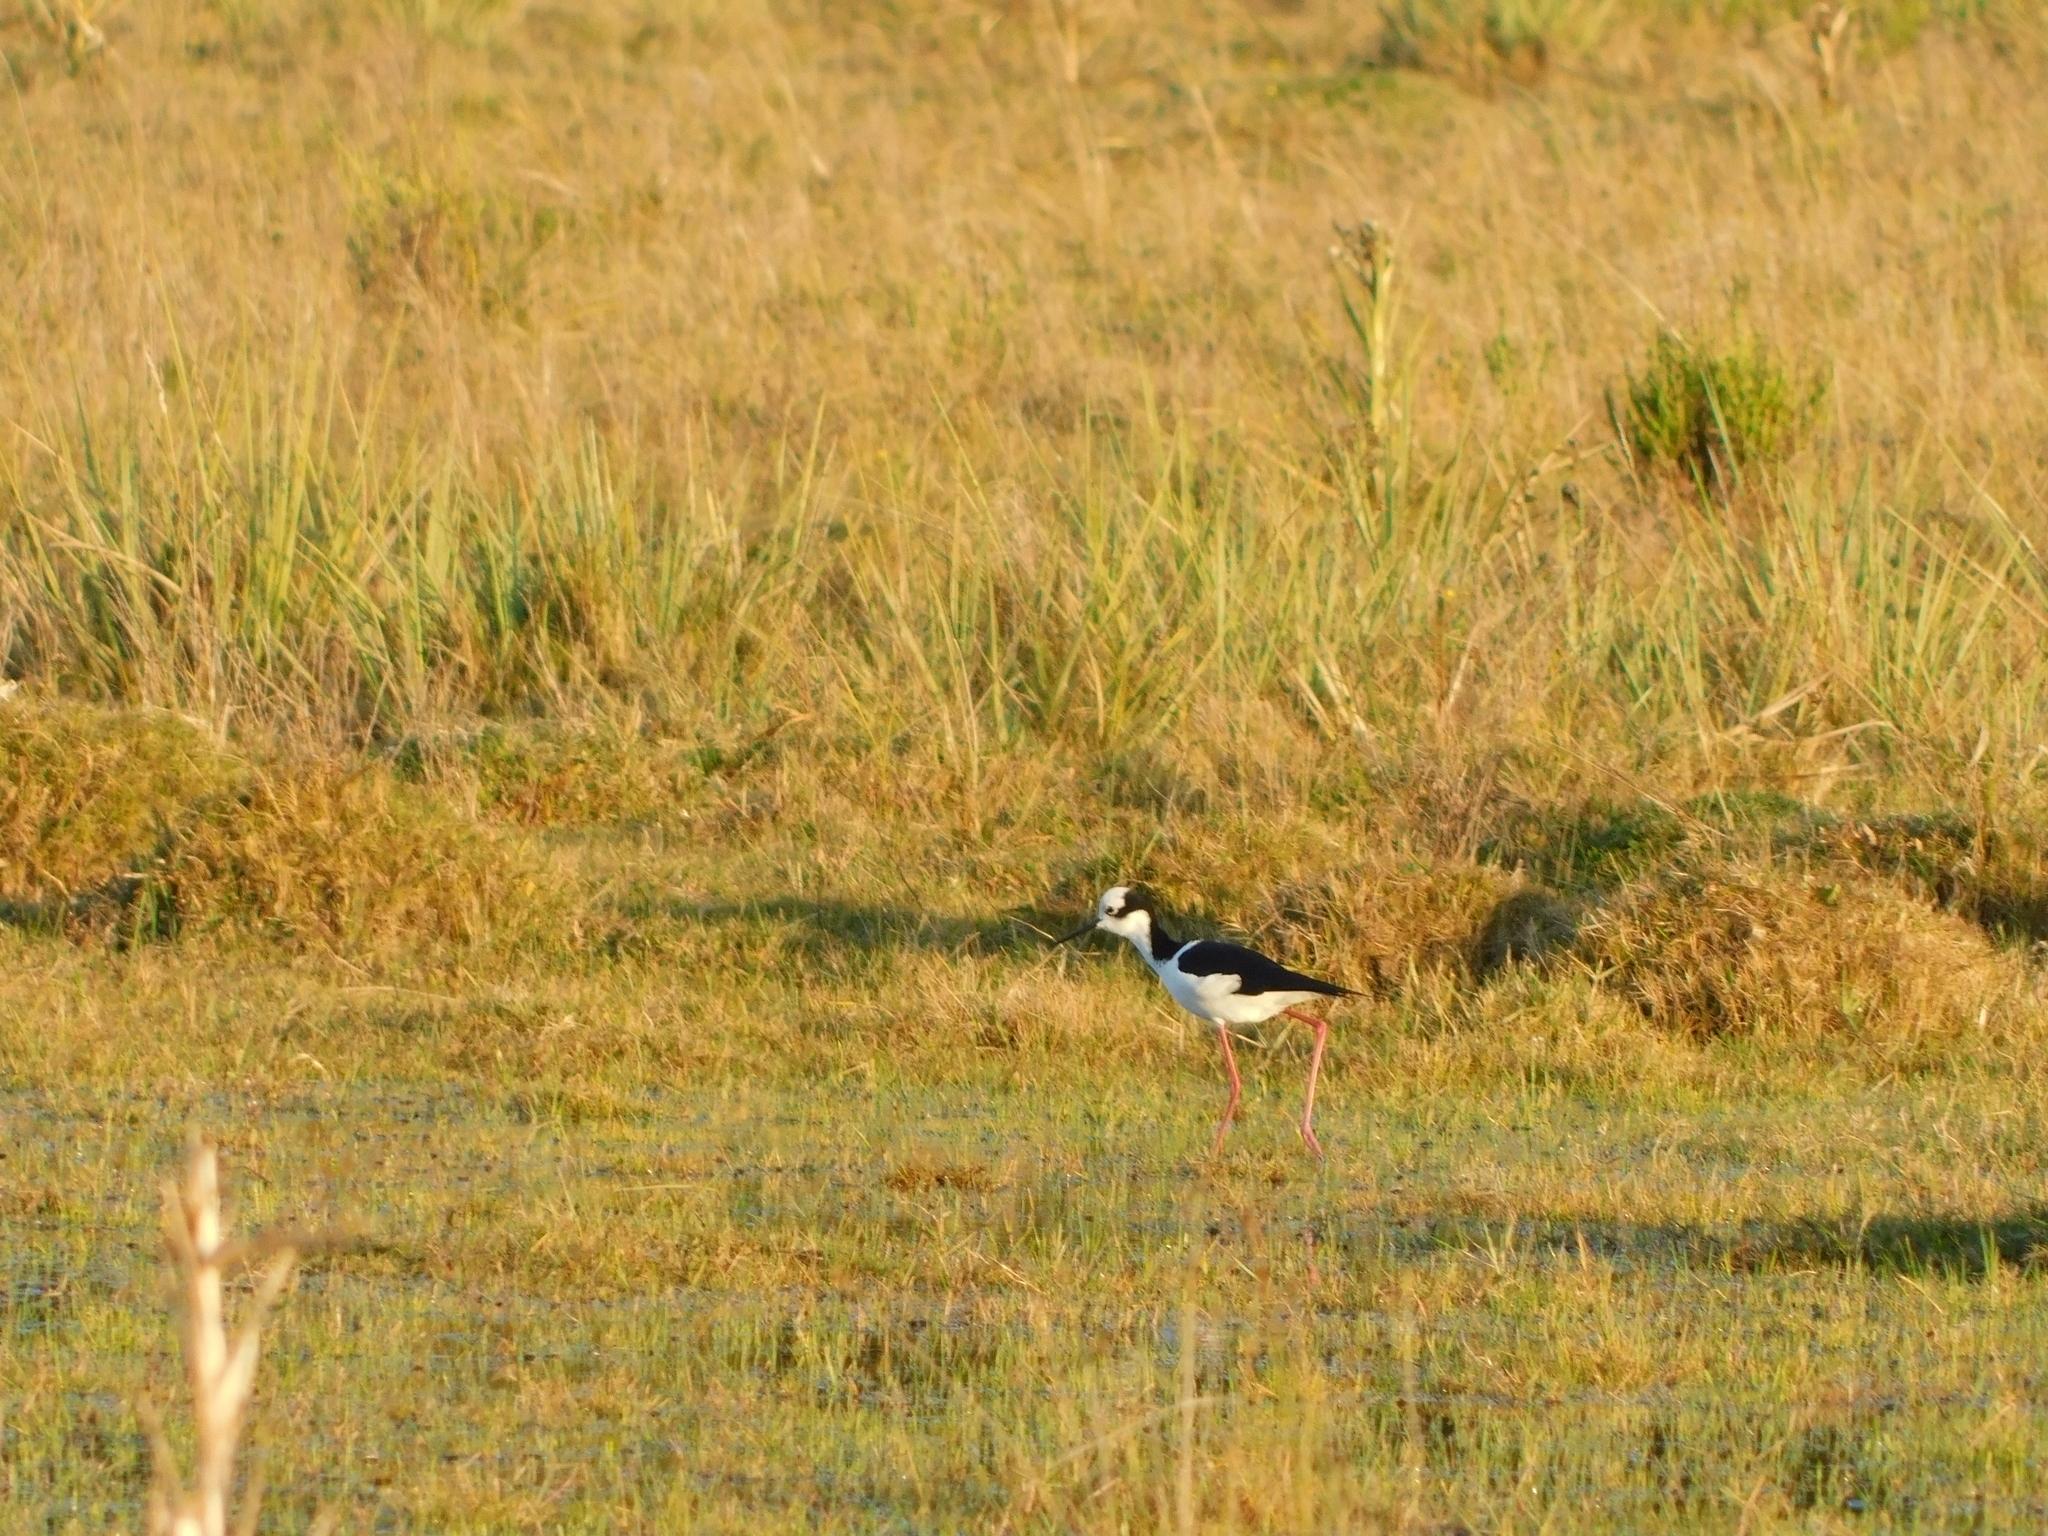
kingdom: Animalia
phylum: Chordata
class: Aves
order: Charadriiformes
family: Recurvirostridae
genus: Himantopus
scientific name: Himantopus mexicanus
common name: Black-necked stilt
